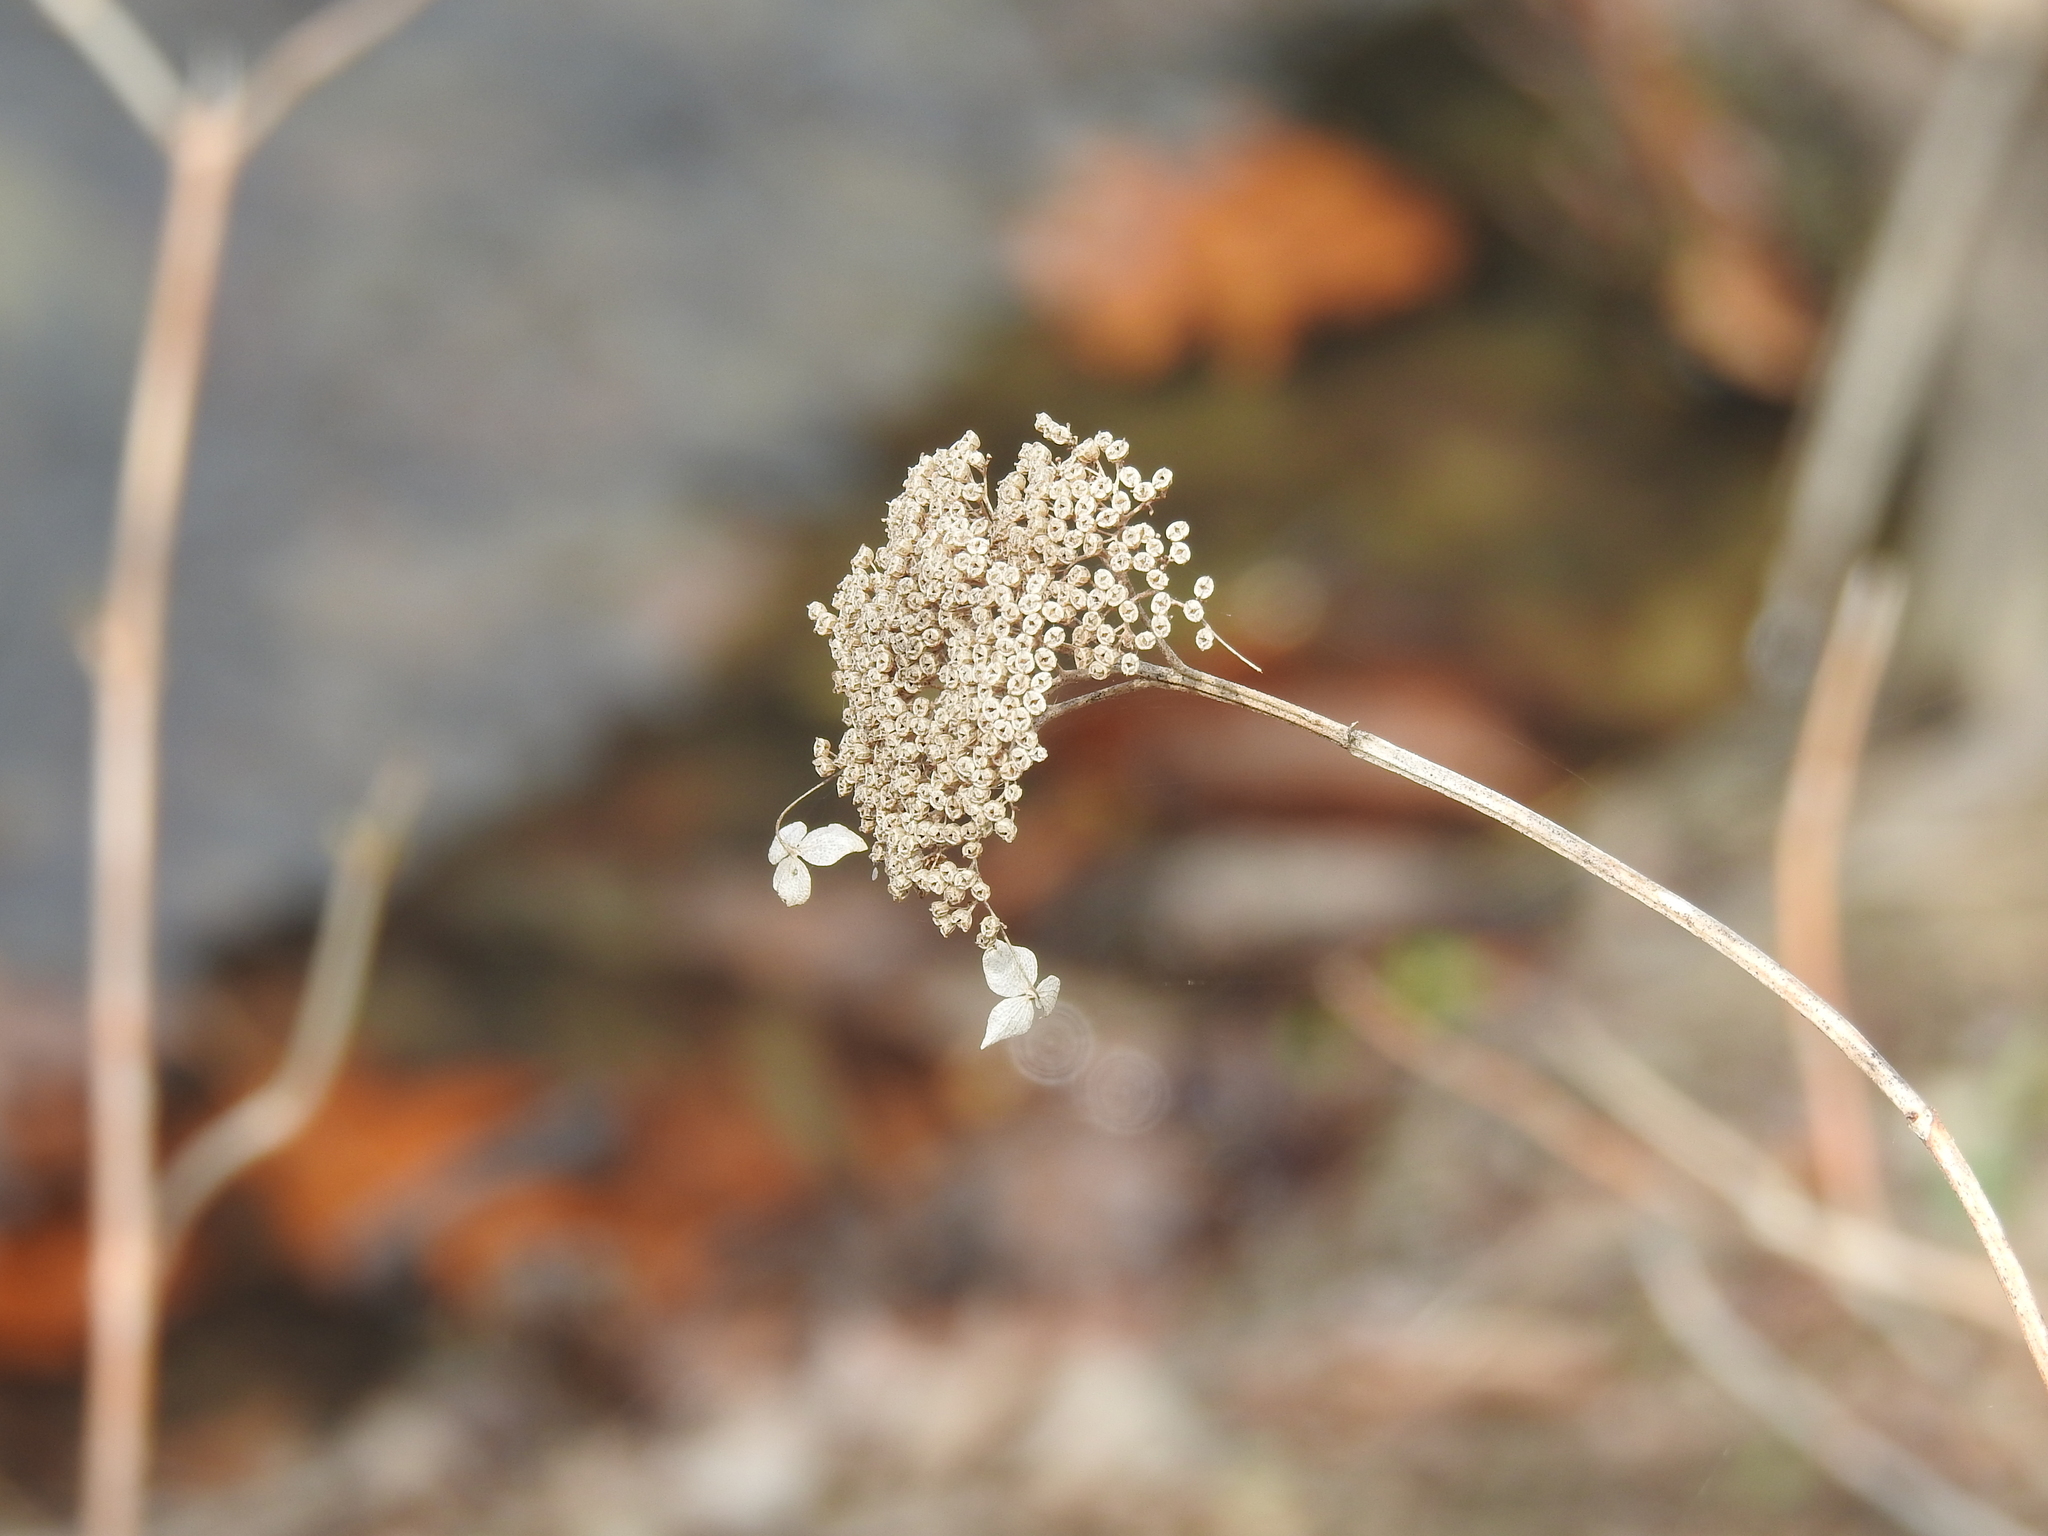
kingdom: Plantae
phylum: Tracheophyta
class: Magnoliopsida
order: Cornales
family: Hydrangeaceae
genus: Hydrangea
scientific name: Hydrangea arborescens
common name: Sevenbark
